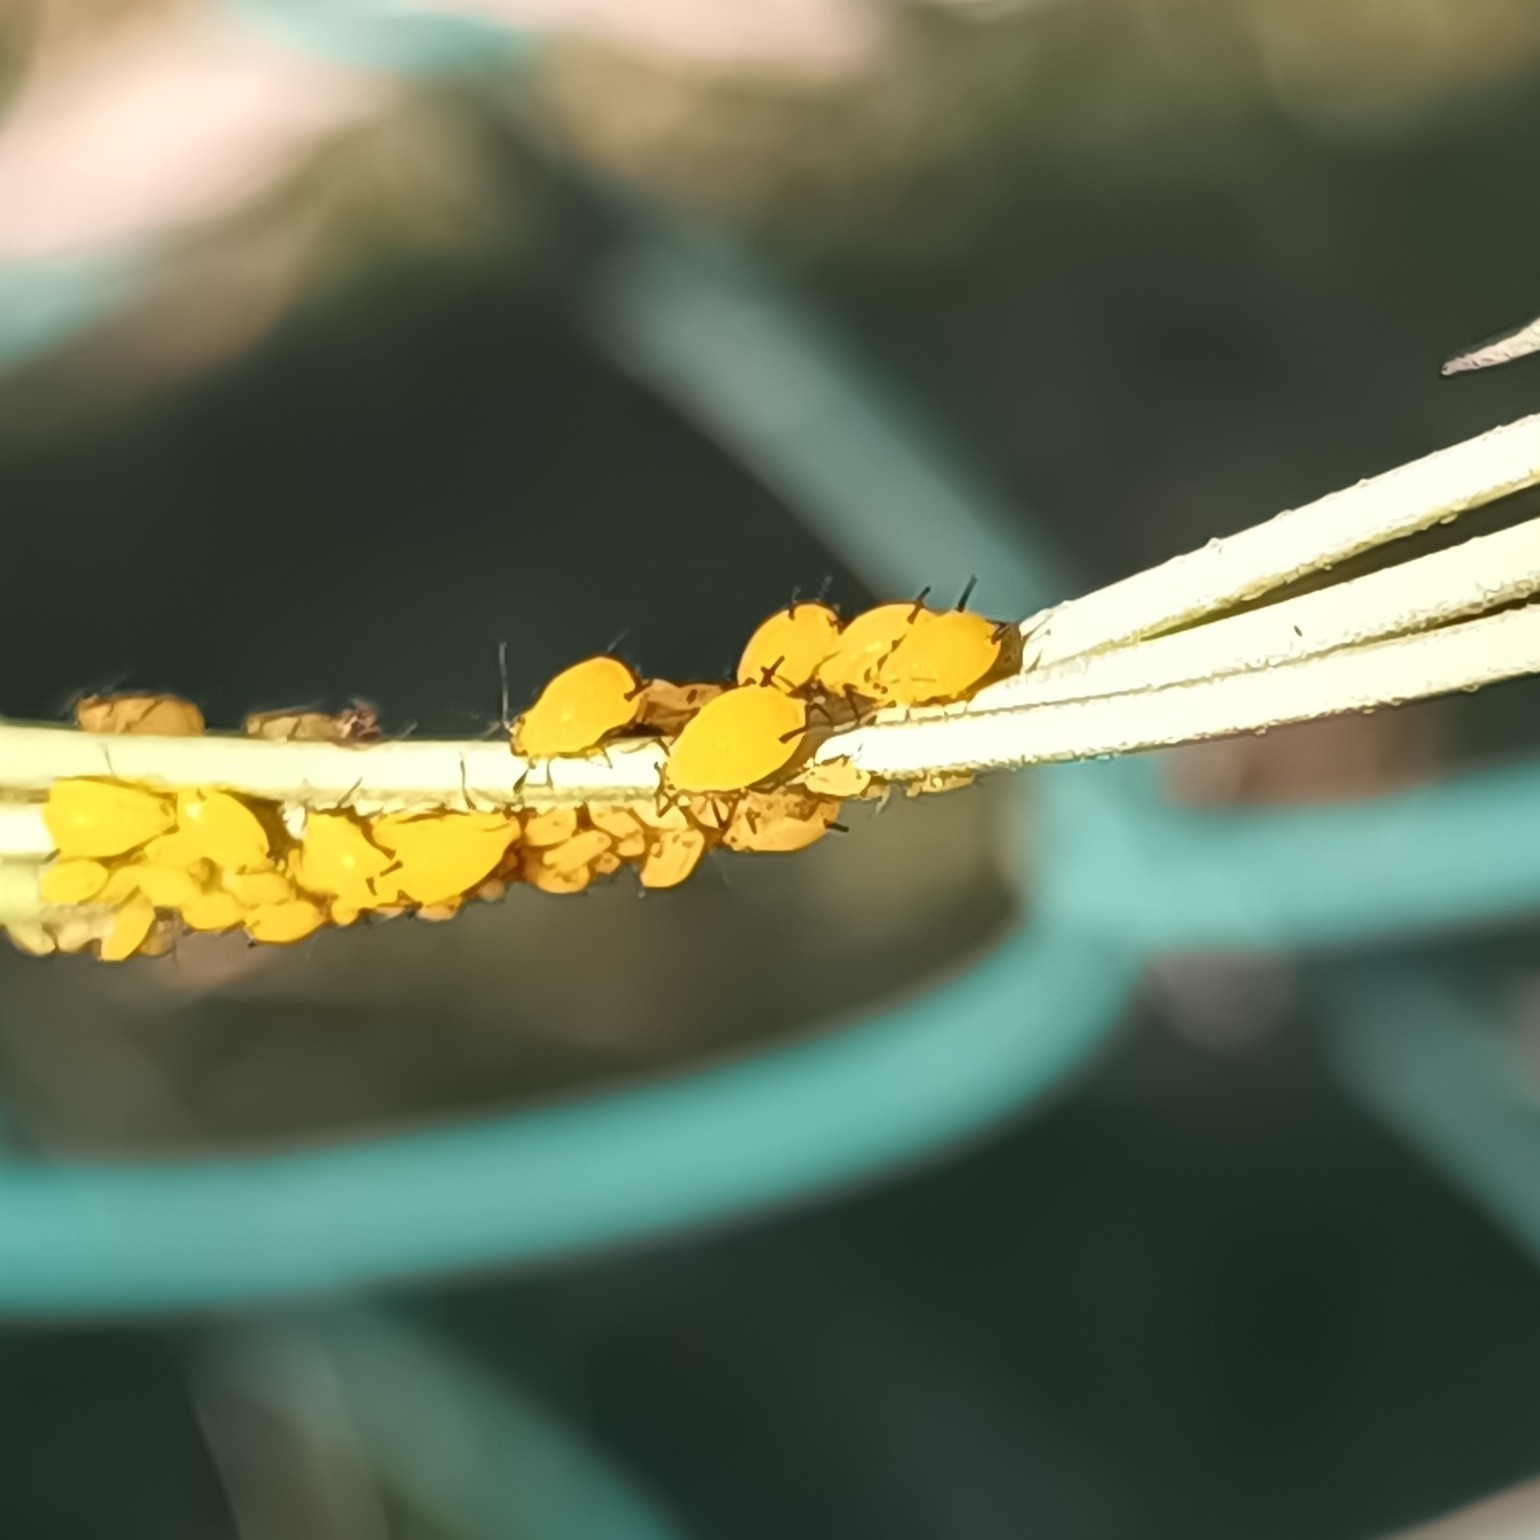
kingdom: Animalia
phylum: Arthropoda
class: Insecta
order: Hemiptera
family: Aphididae
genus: Aphis
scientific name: Aphis nerii
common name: Oleander aphid
